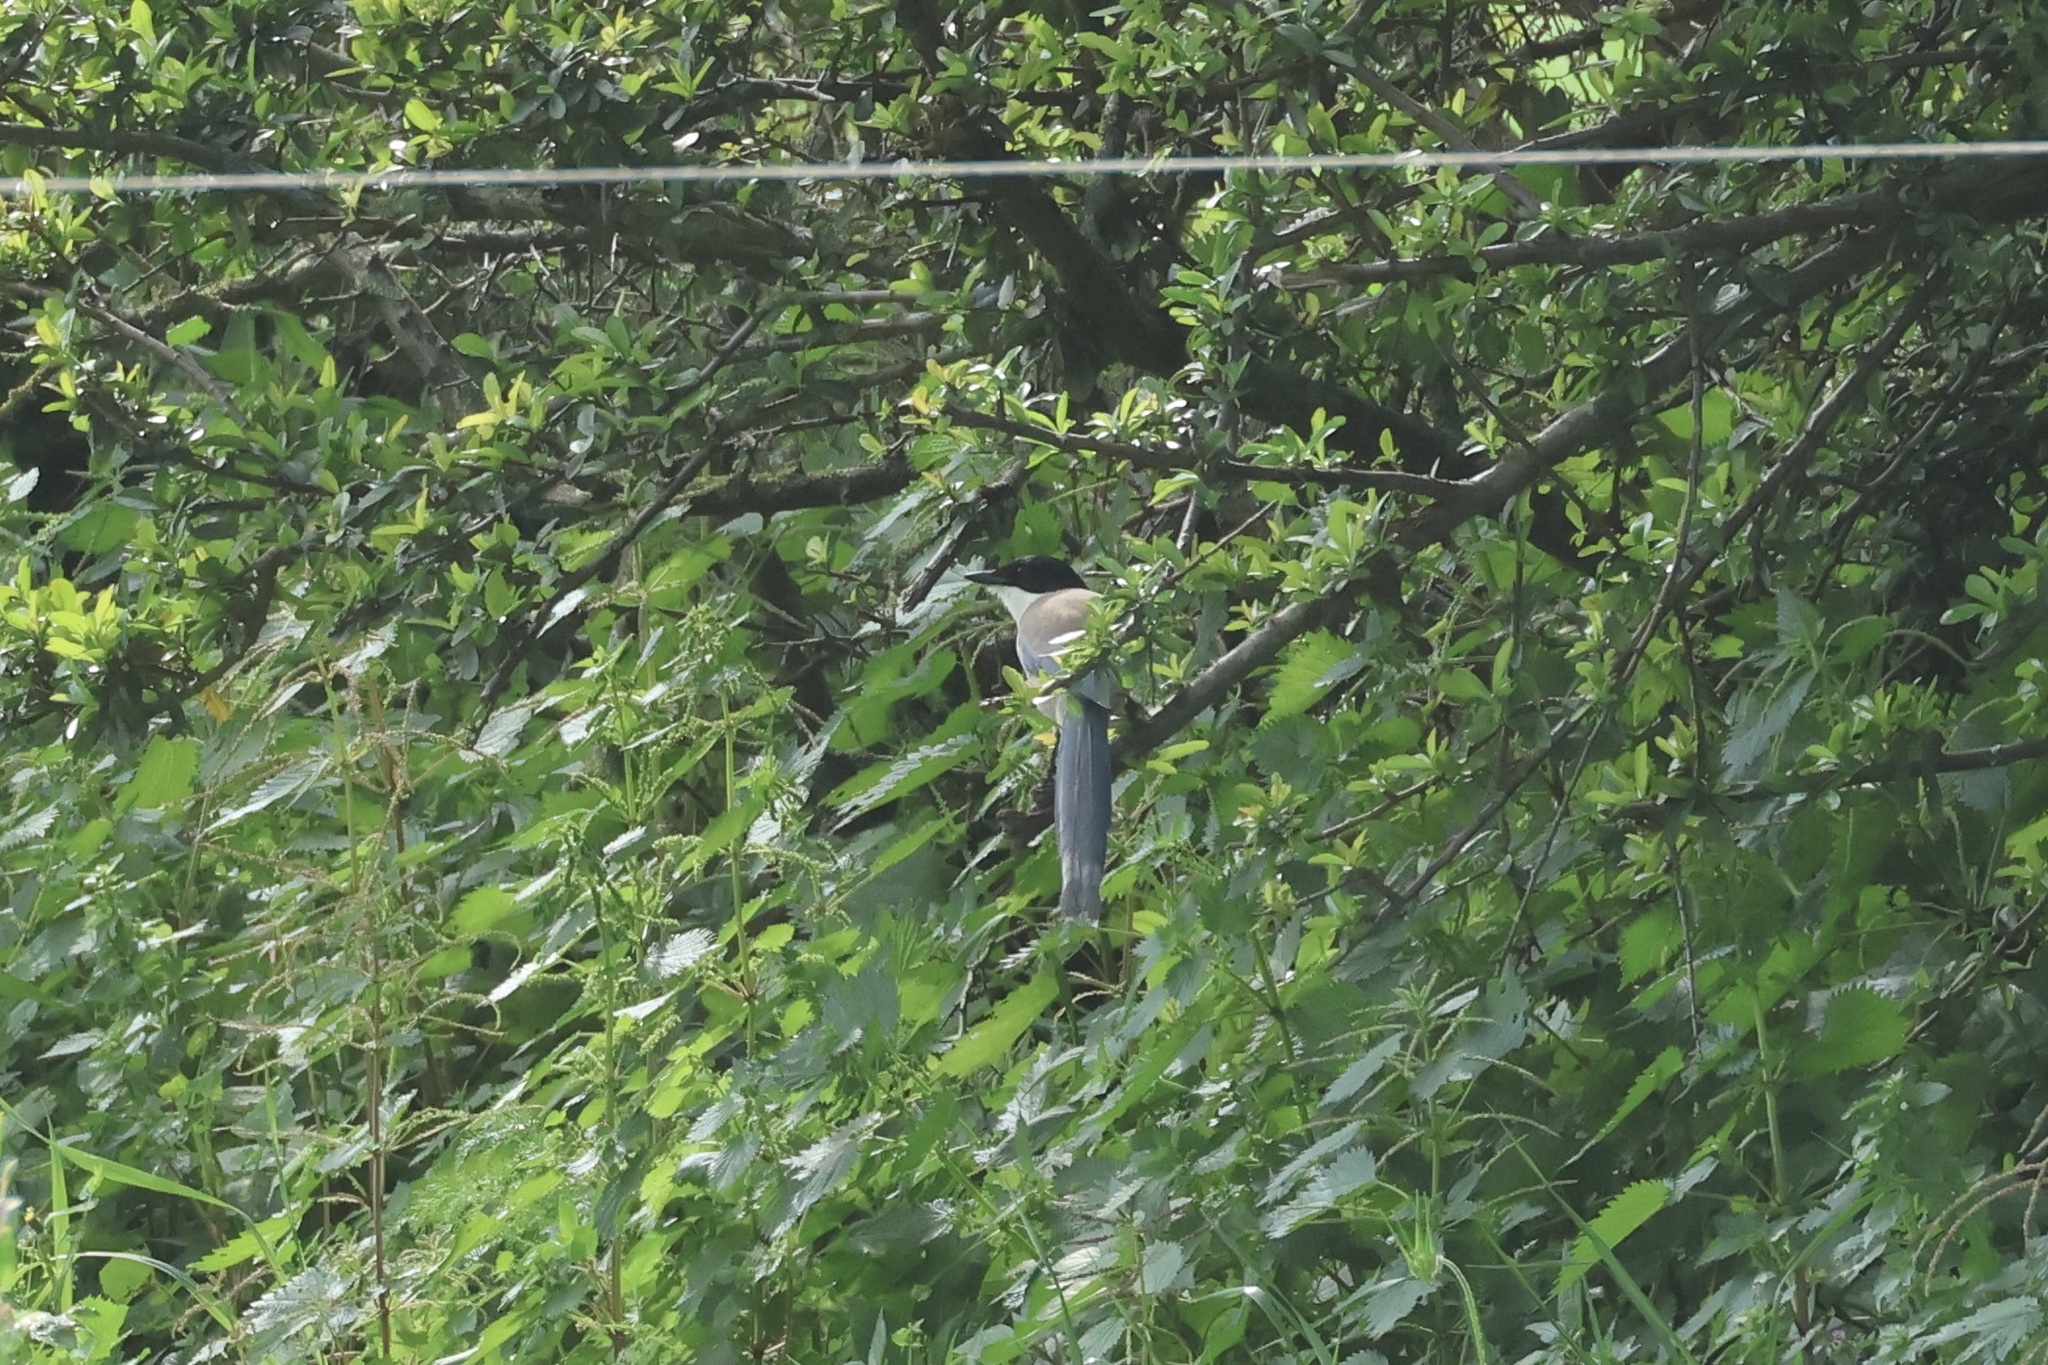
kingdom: Animalia
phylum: Chordata
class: Aves
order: Passeriformes
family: Corvidae
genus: Cyanopica
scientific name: Cyanopica cooki
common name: Iberian magpie
